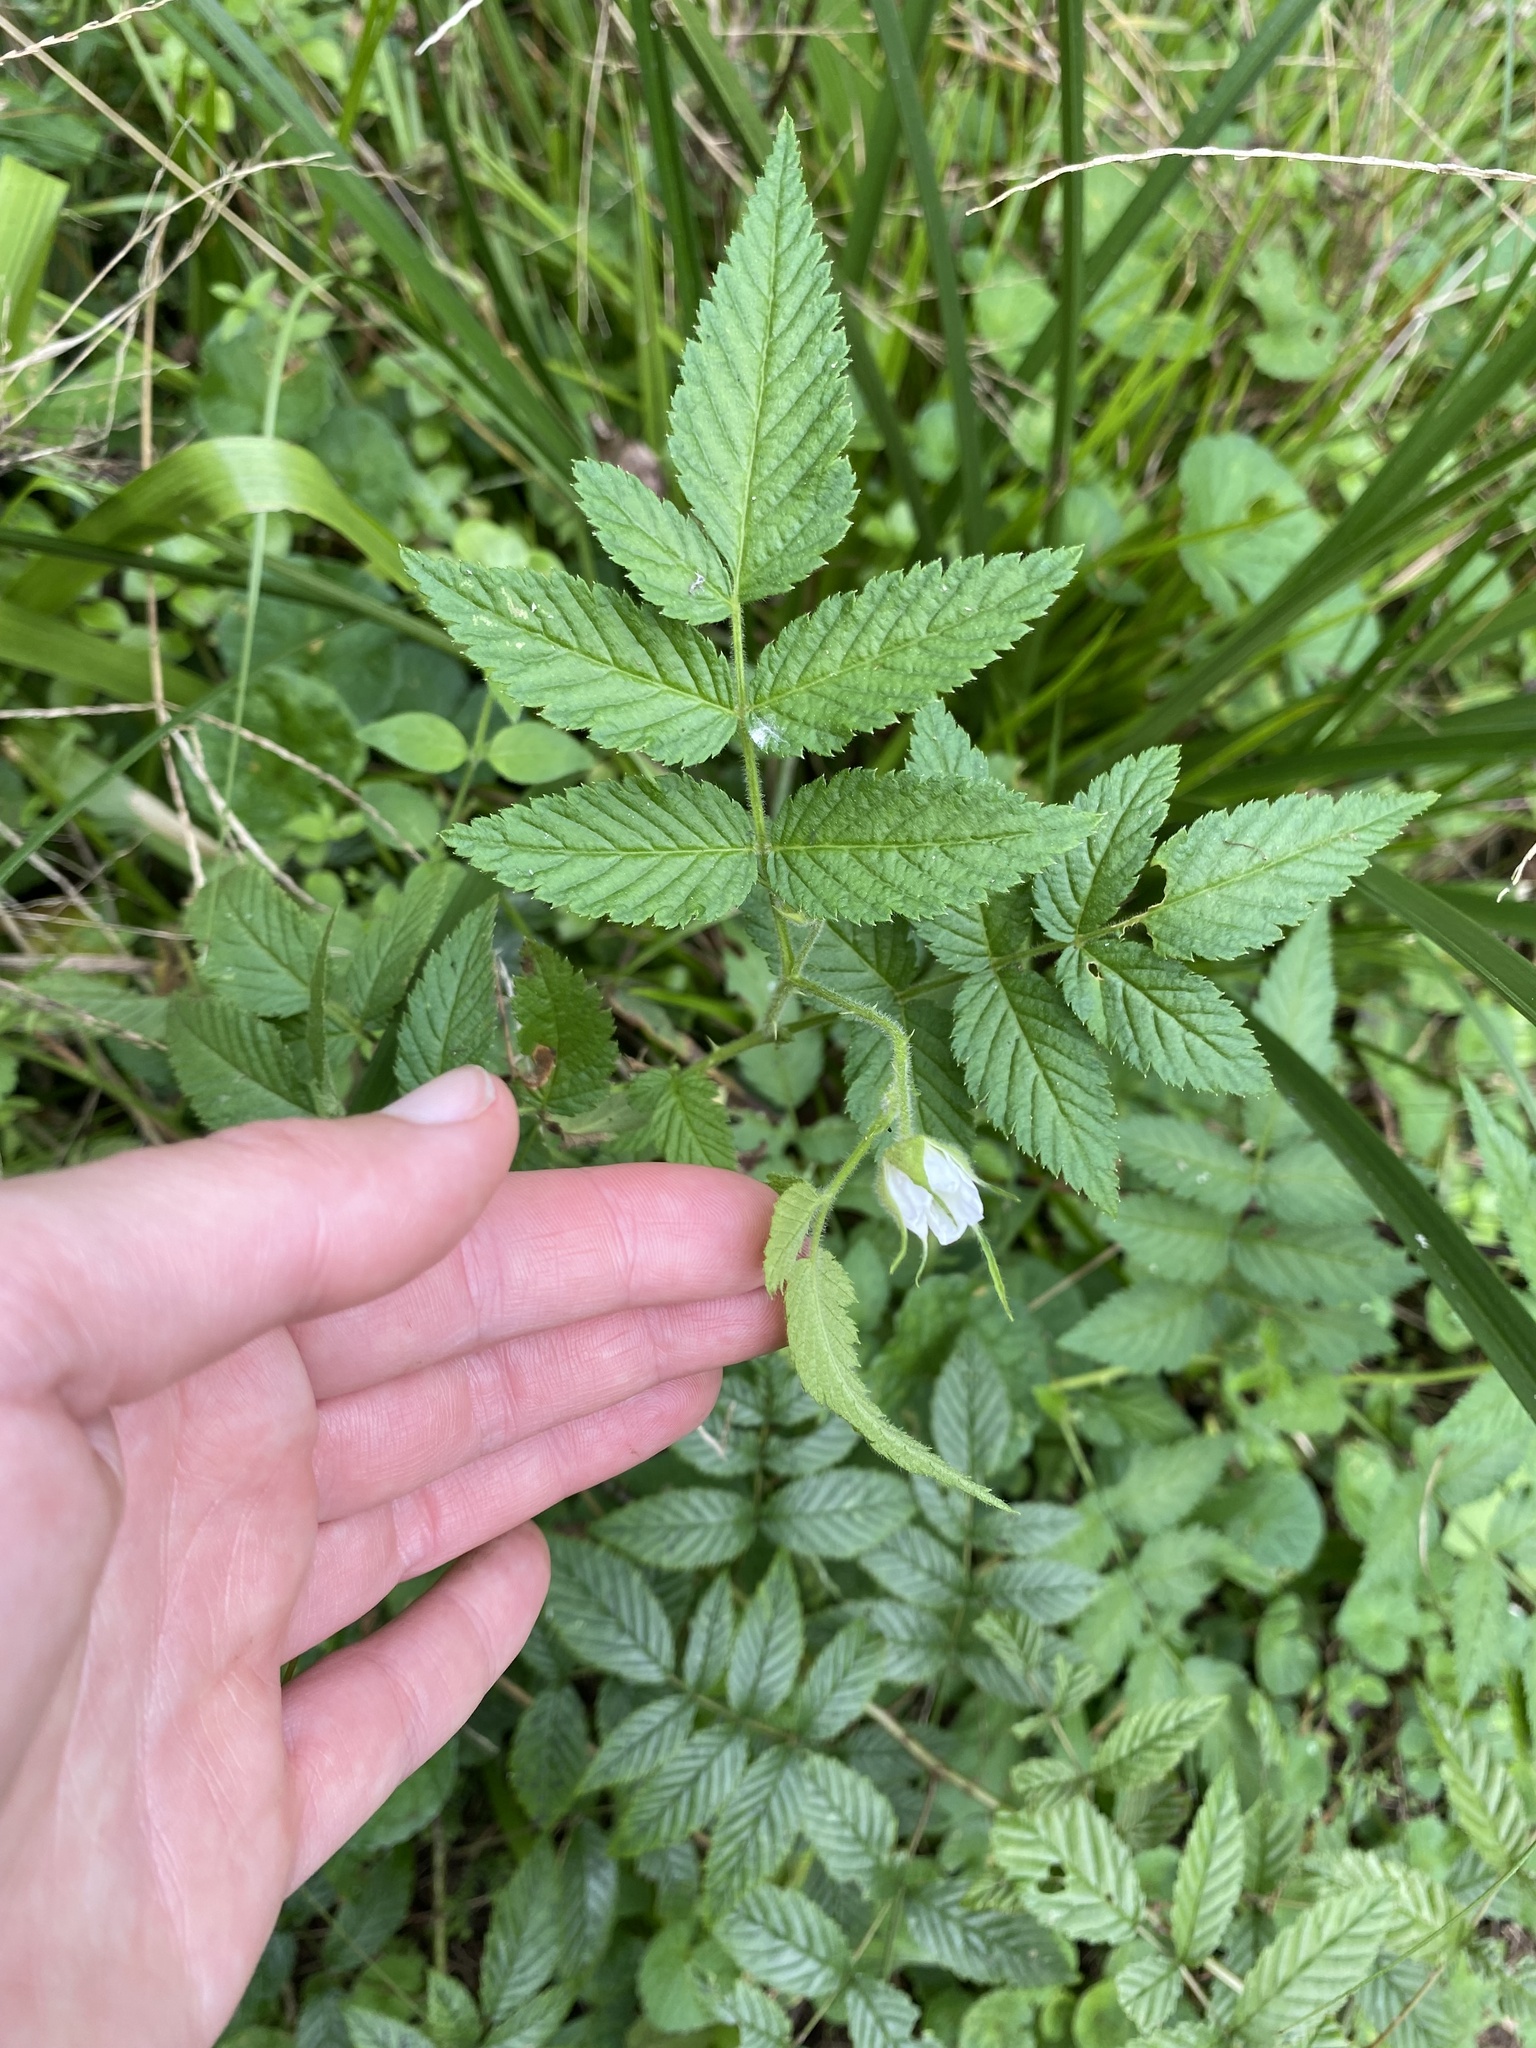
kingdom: Plantae
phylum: Tracheophyta
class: Magnoliopsida
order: Rosales
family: Rosaceae
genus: Rubus
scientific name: Rubus rosifolius
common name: Roseleaf raspberry
